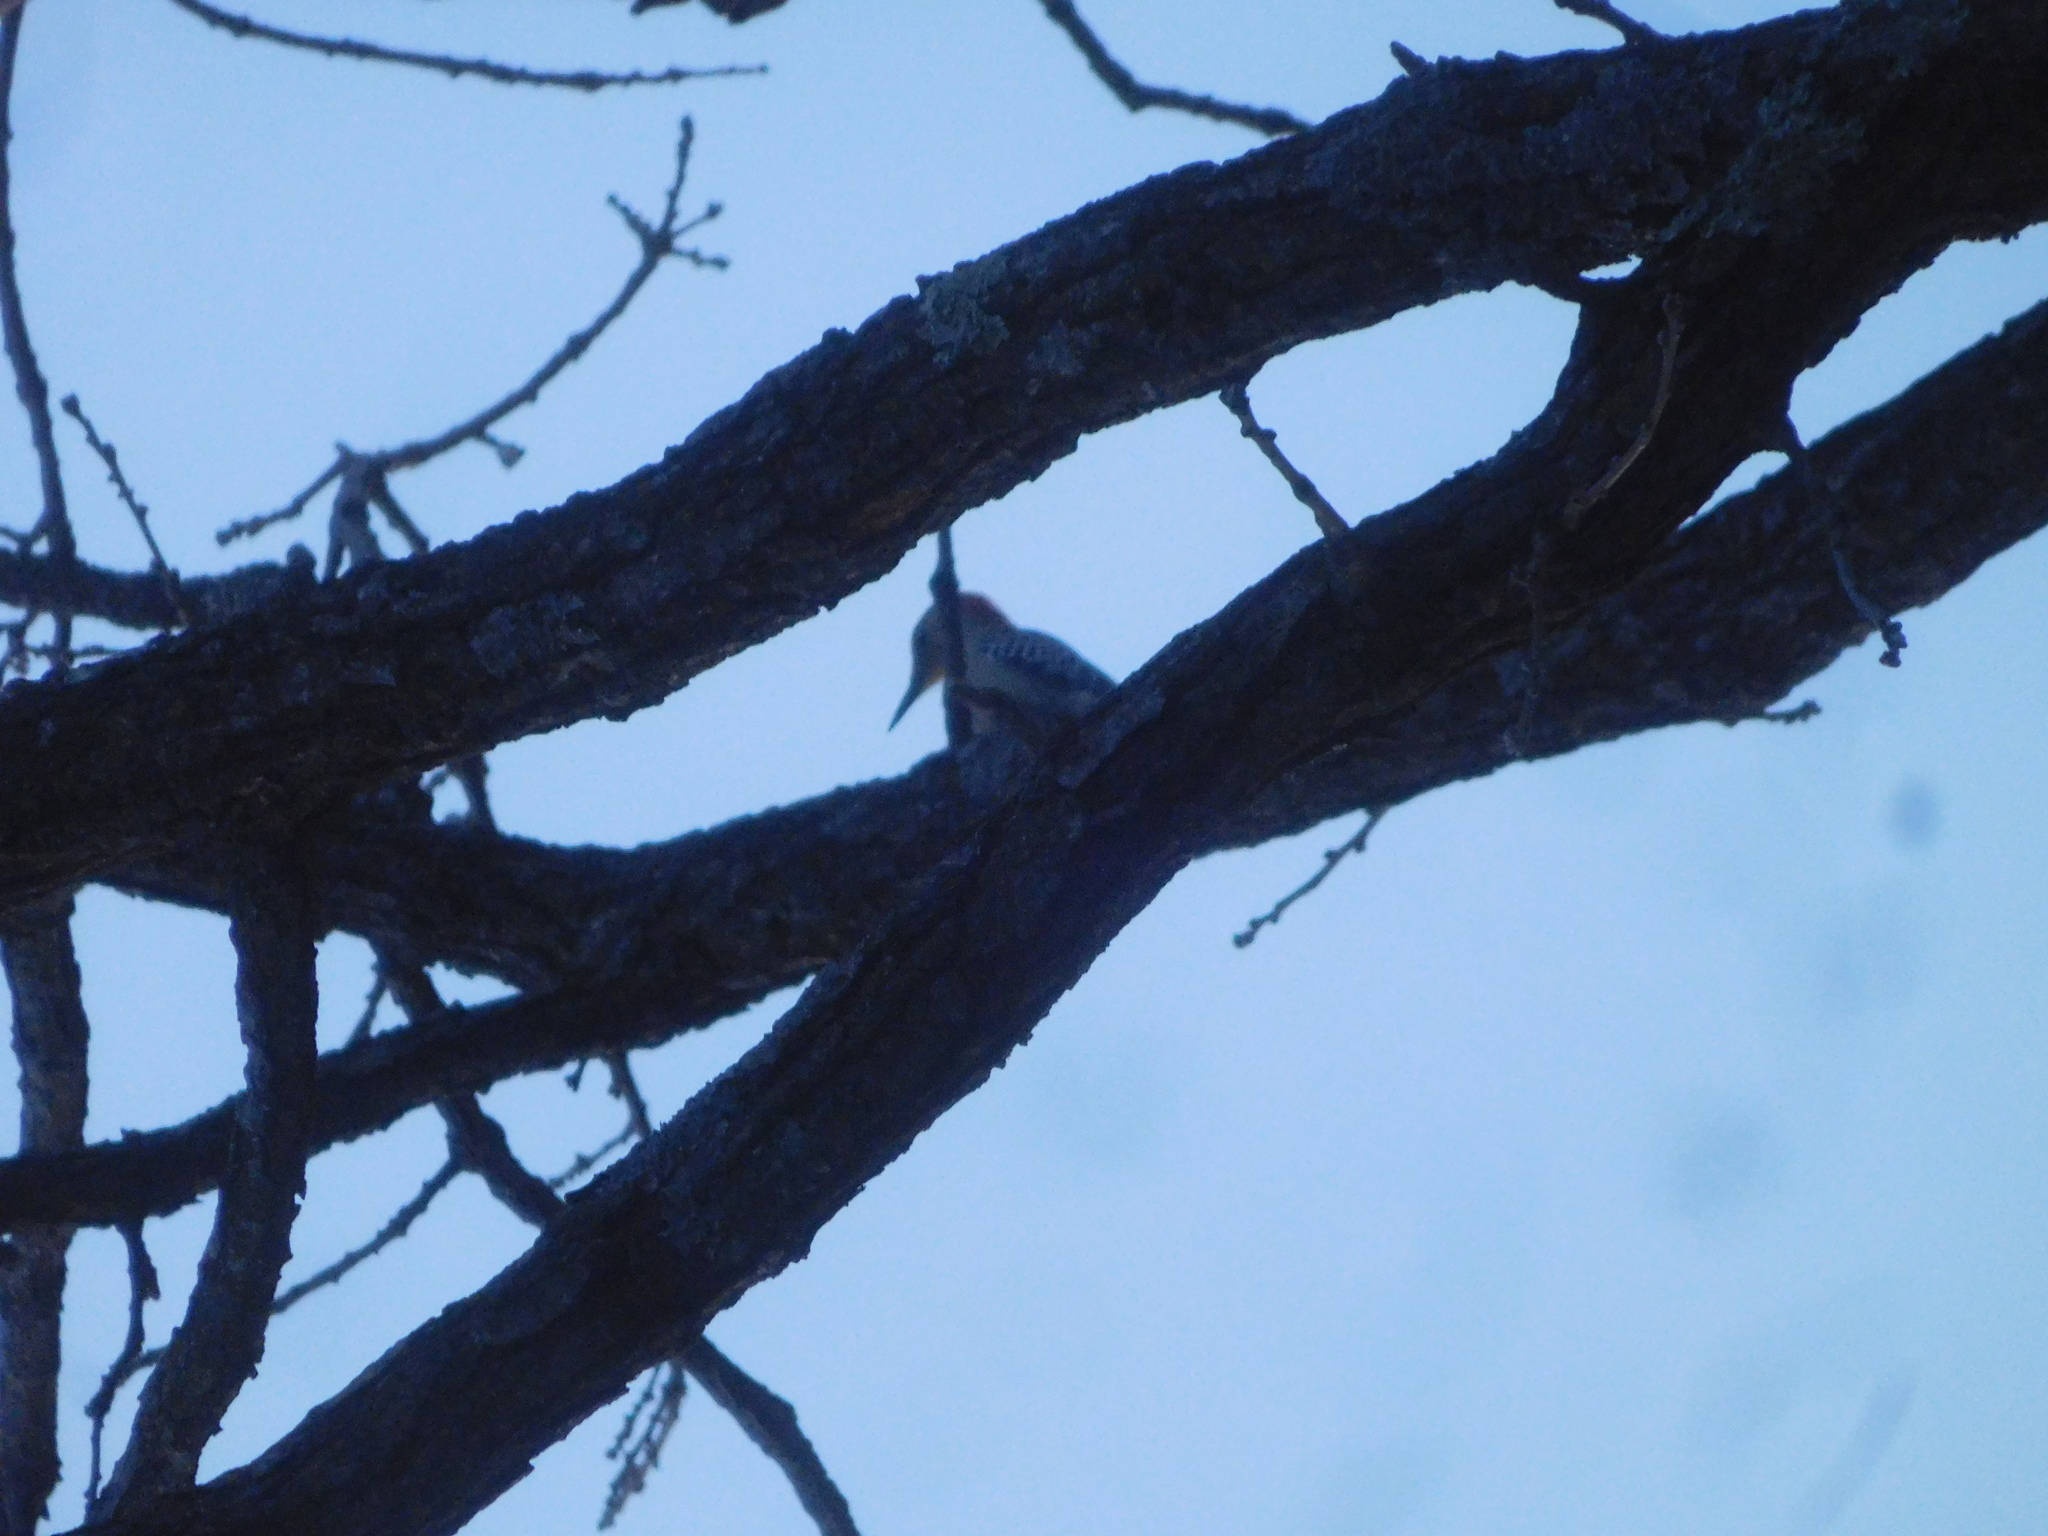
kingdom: Animalia
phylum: Chordata
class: Aves
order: Piciformes
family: Picidae
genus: Melanerpes
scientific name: Melanerpes carolinus
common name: Red-bellied woodpecker
